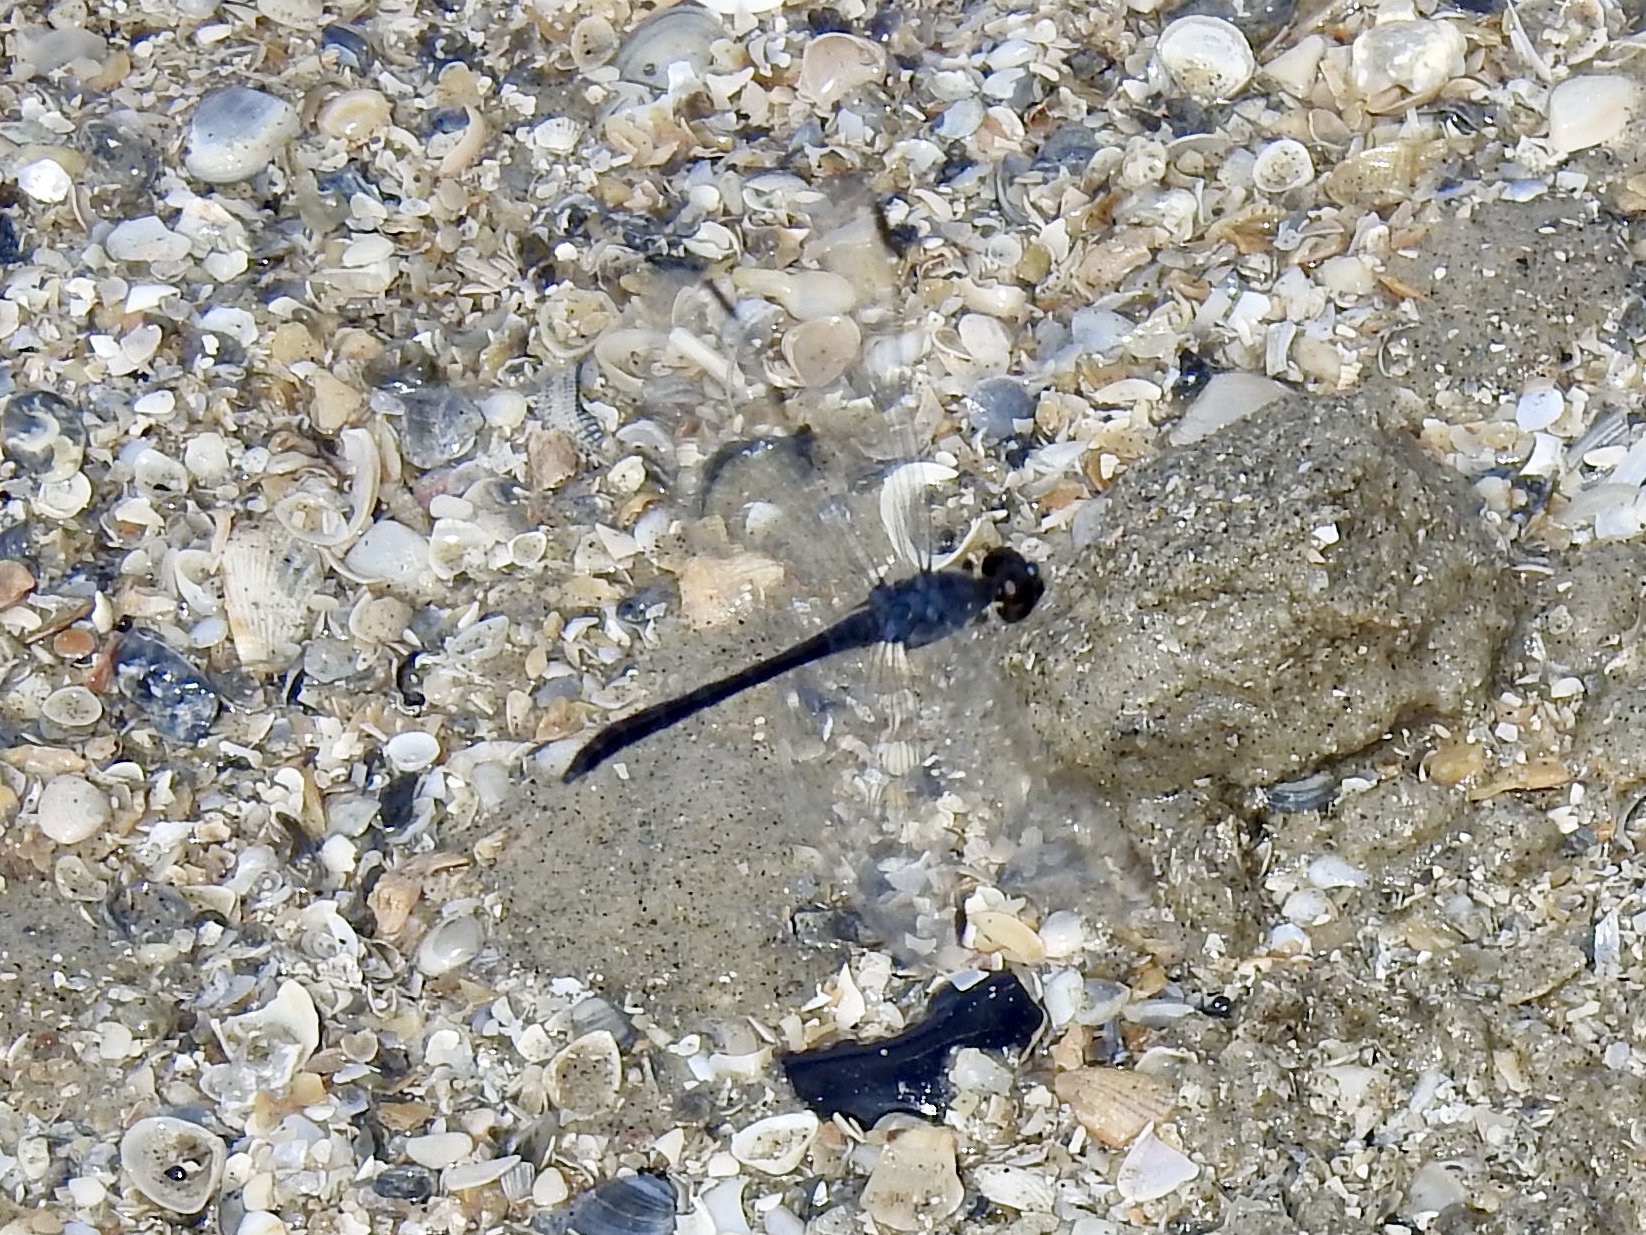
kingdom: Animalia
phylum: Arthropoda
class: Insecta
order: Odonata
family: Libellulidae
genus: Erythrodiplax
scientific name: Erythrodiplax berenice
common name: Seaside dragonlet
